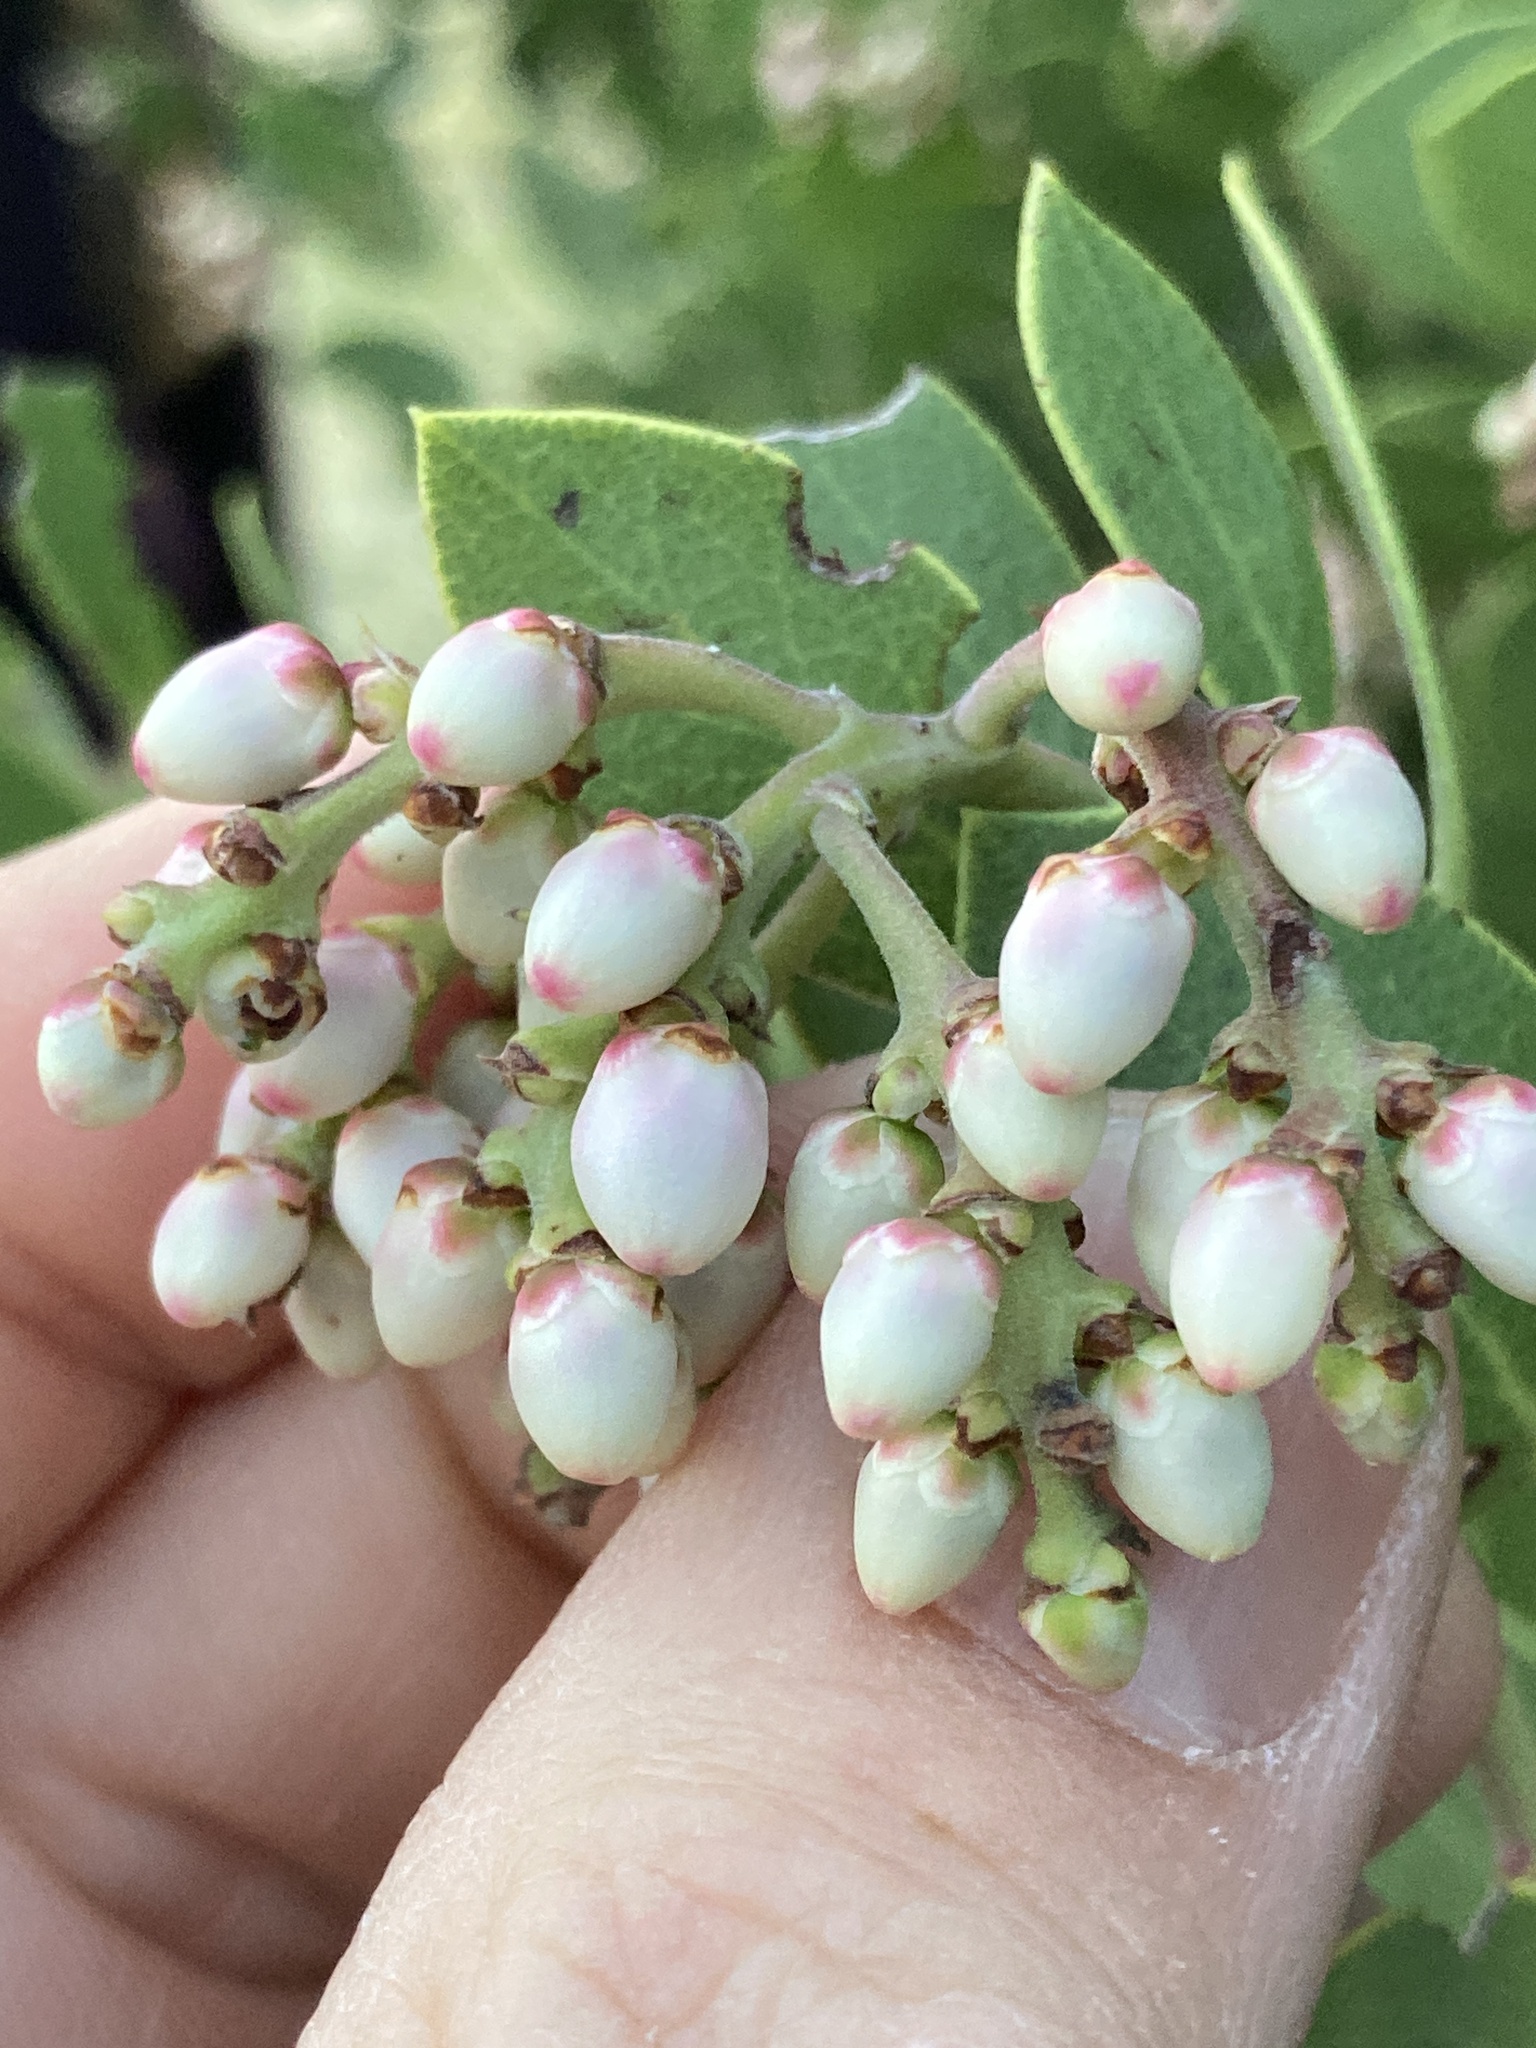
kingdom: Plantae
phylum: Tracheophyta
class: Magnoliopsida
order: Ericales
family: Ericaceae
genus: Arctostaphylos
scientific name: Arctostaphylos manzanita
